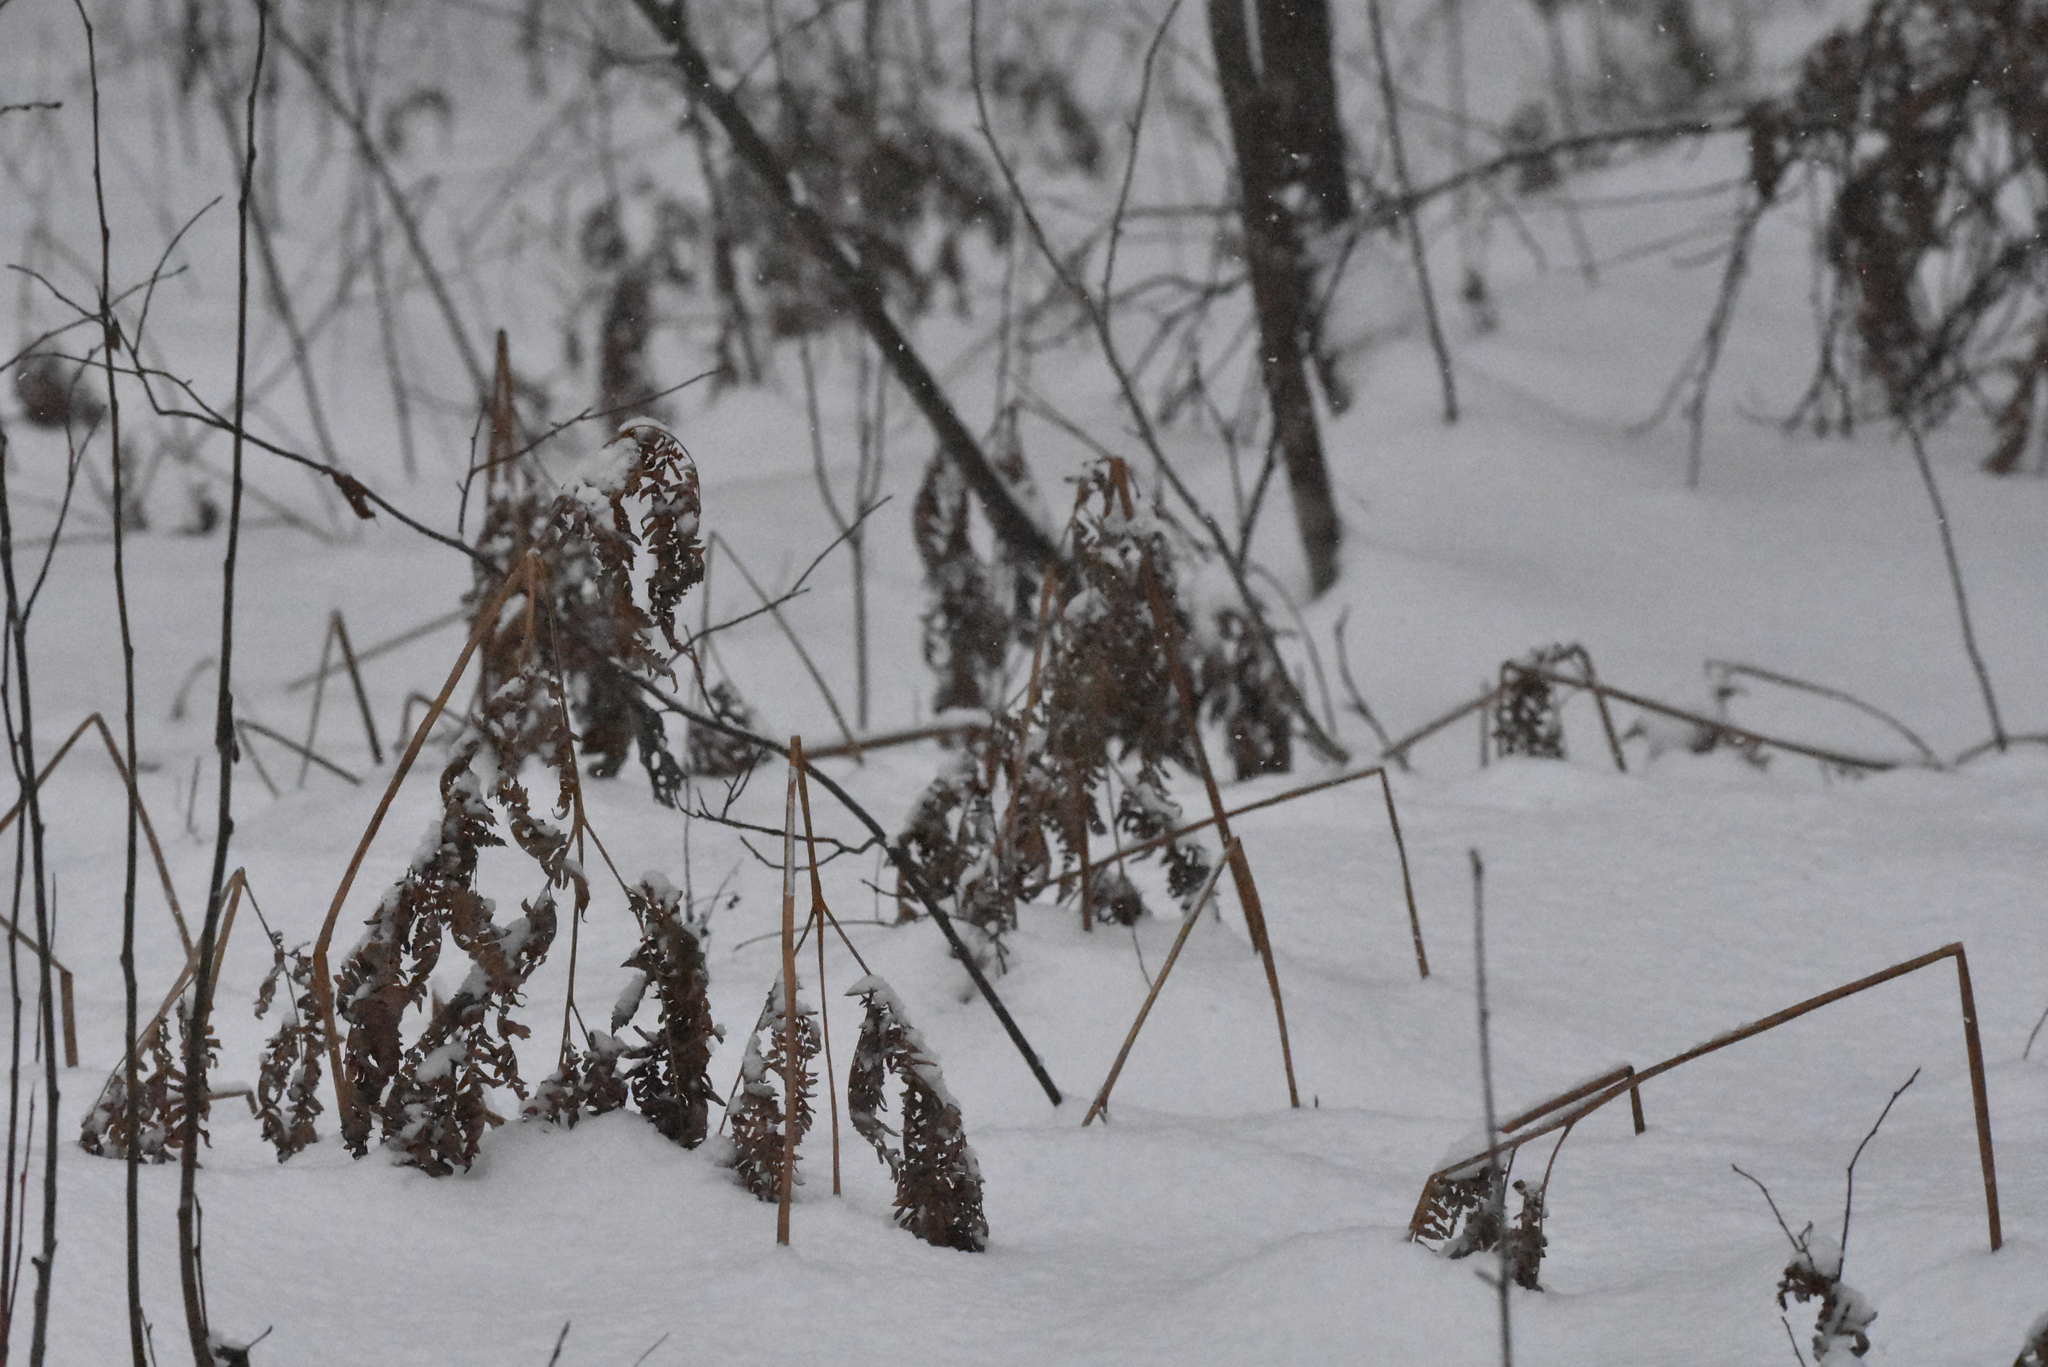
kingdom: Plantae
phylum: Tracheophyta
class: Polypodiopsida
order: Polypodiales
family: Dennstaedtiaceae
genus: Pteridium
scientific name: Pteridium aquilinum
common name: Bracken
